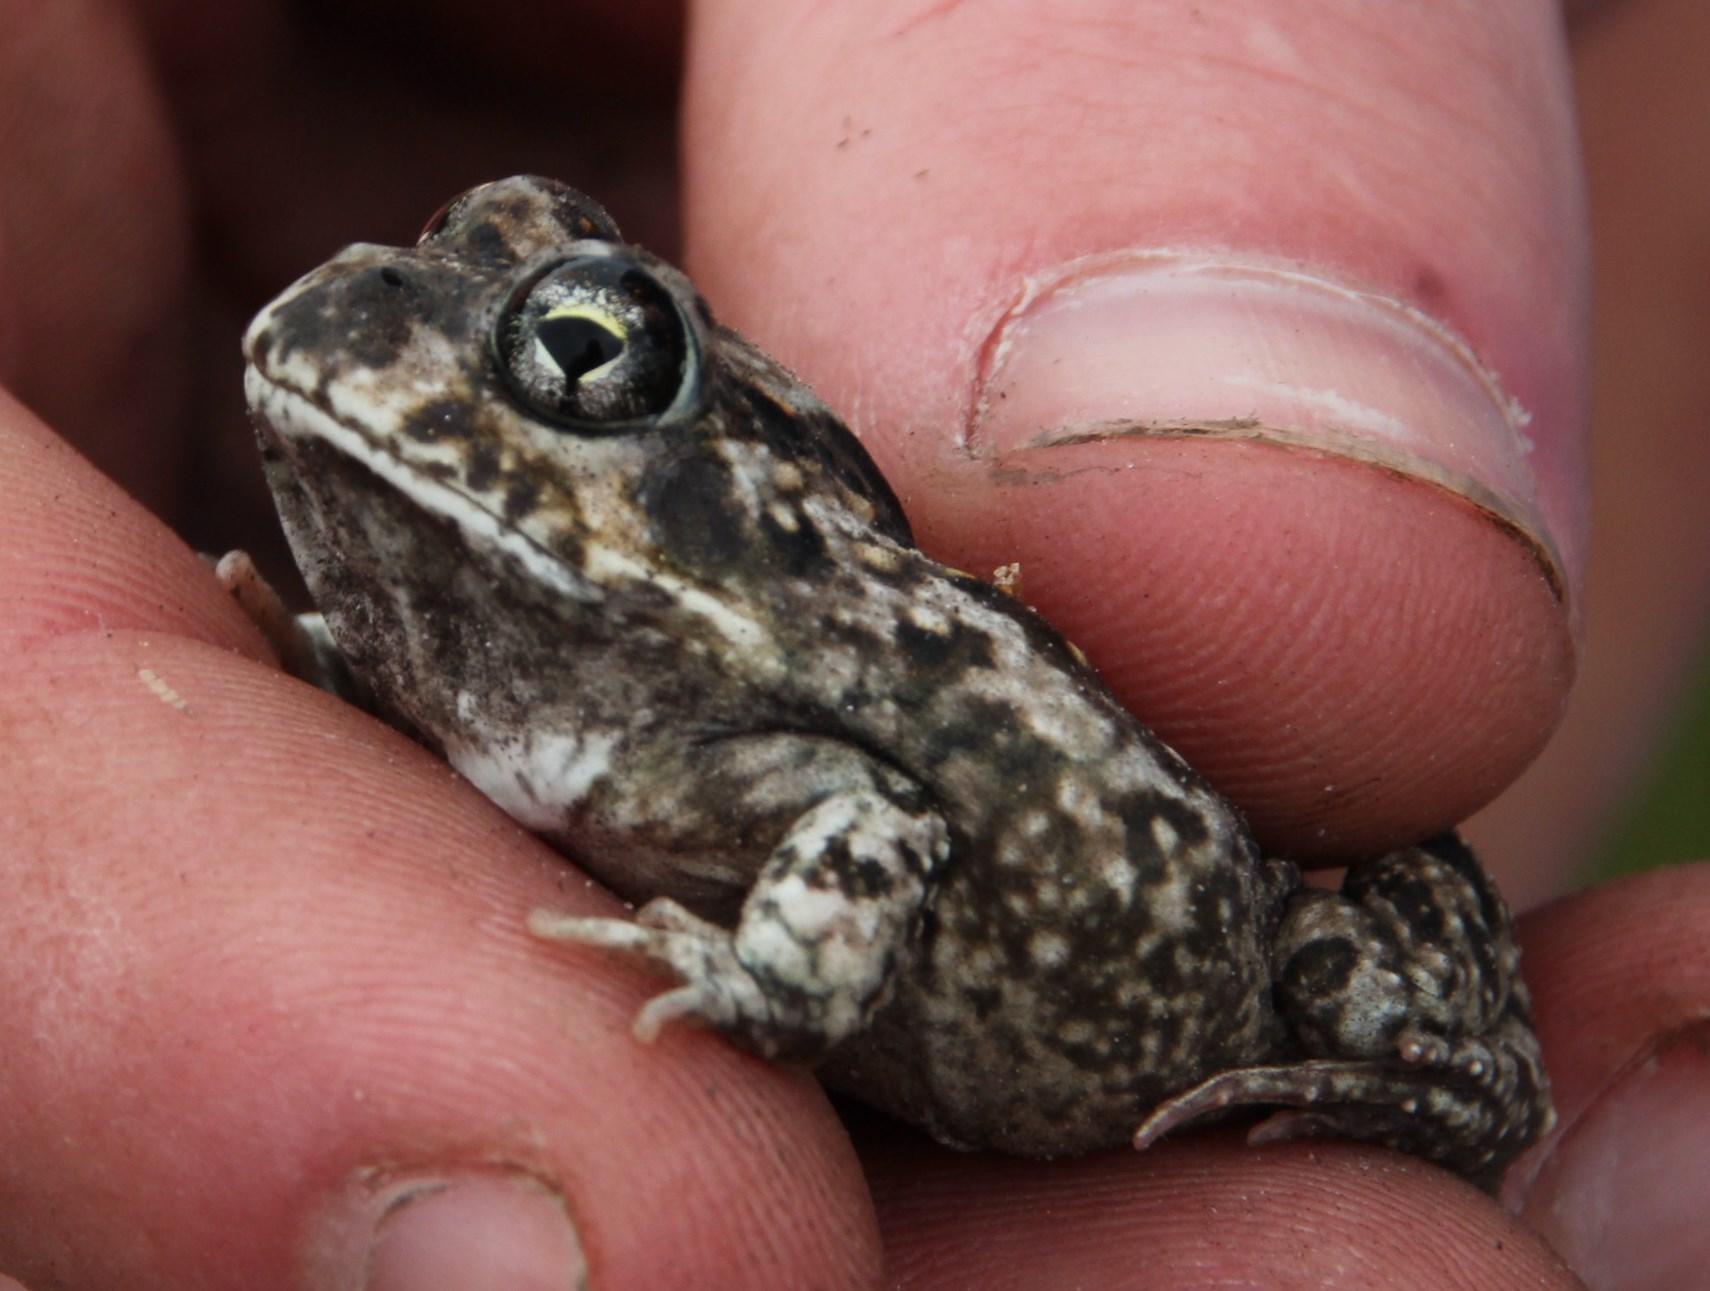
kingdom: Animalia
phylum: Chordata
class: Amphibia
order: Anura
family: Pyxicephalidae
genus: Tomopterna
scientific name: Tomopterna delalandii
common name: Delalande's burrowing bullfrog
